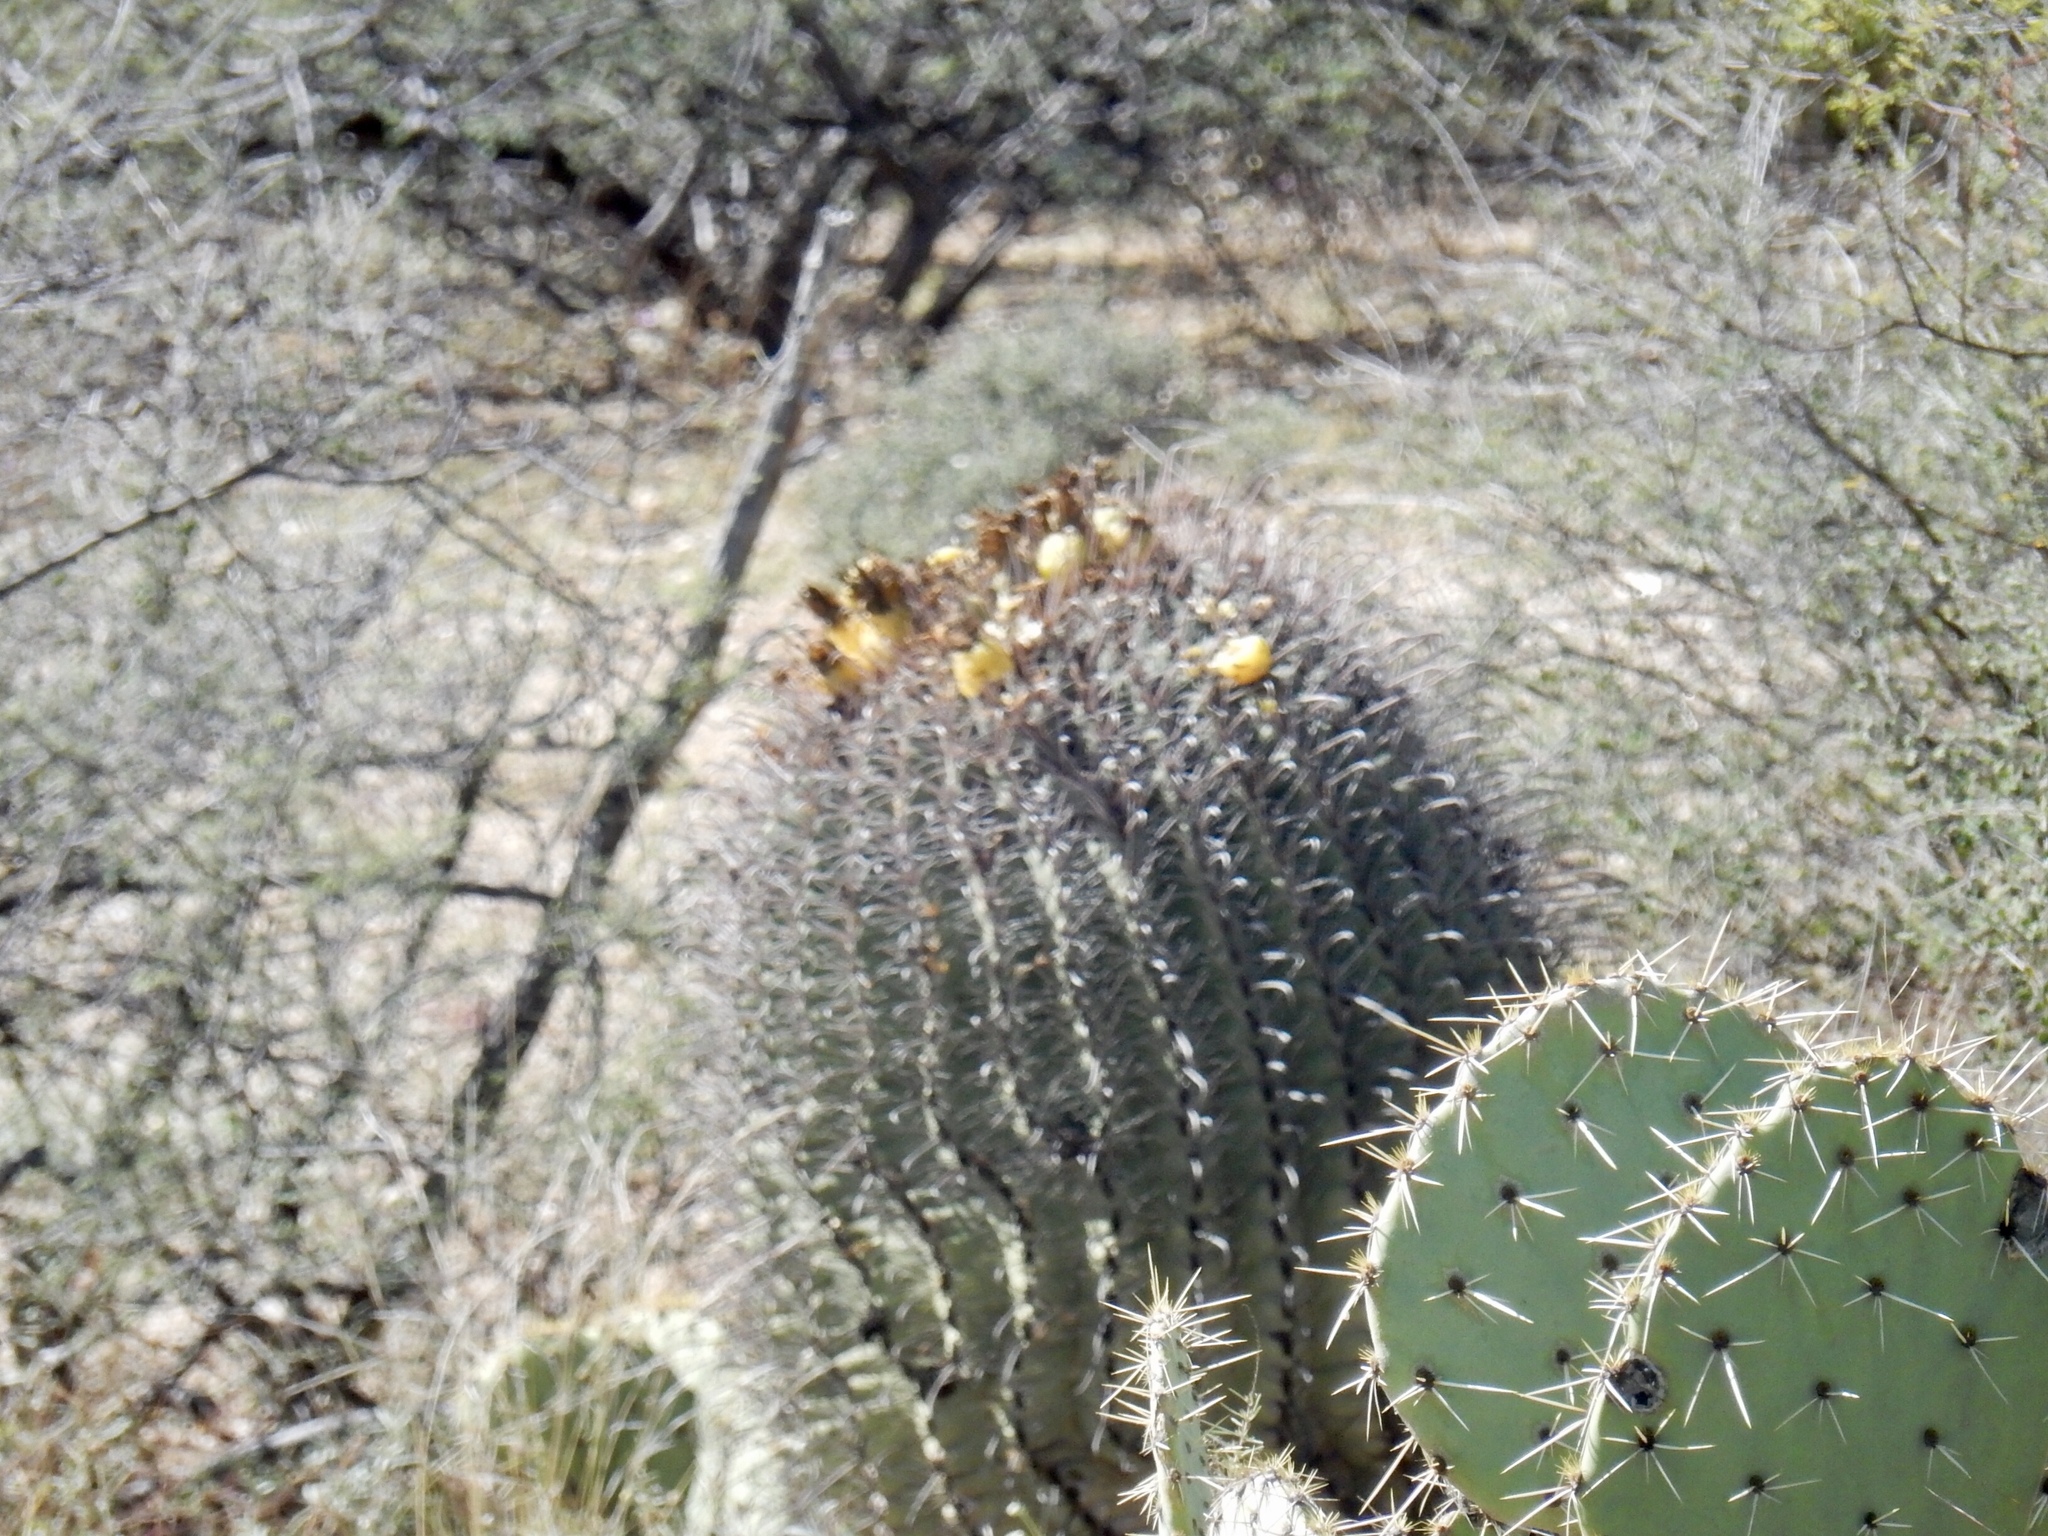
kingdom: Plantae
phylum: Tracheophyta
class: Magnoliopsida
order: Caryophyllales
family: Cactaceae
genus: Ferocactus
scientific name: Ferocactus wislizeni
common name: Candy barrel cactus
